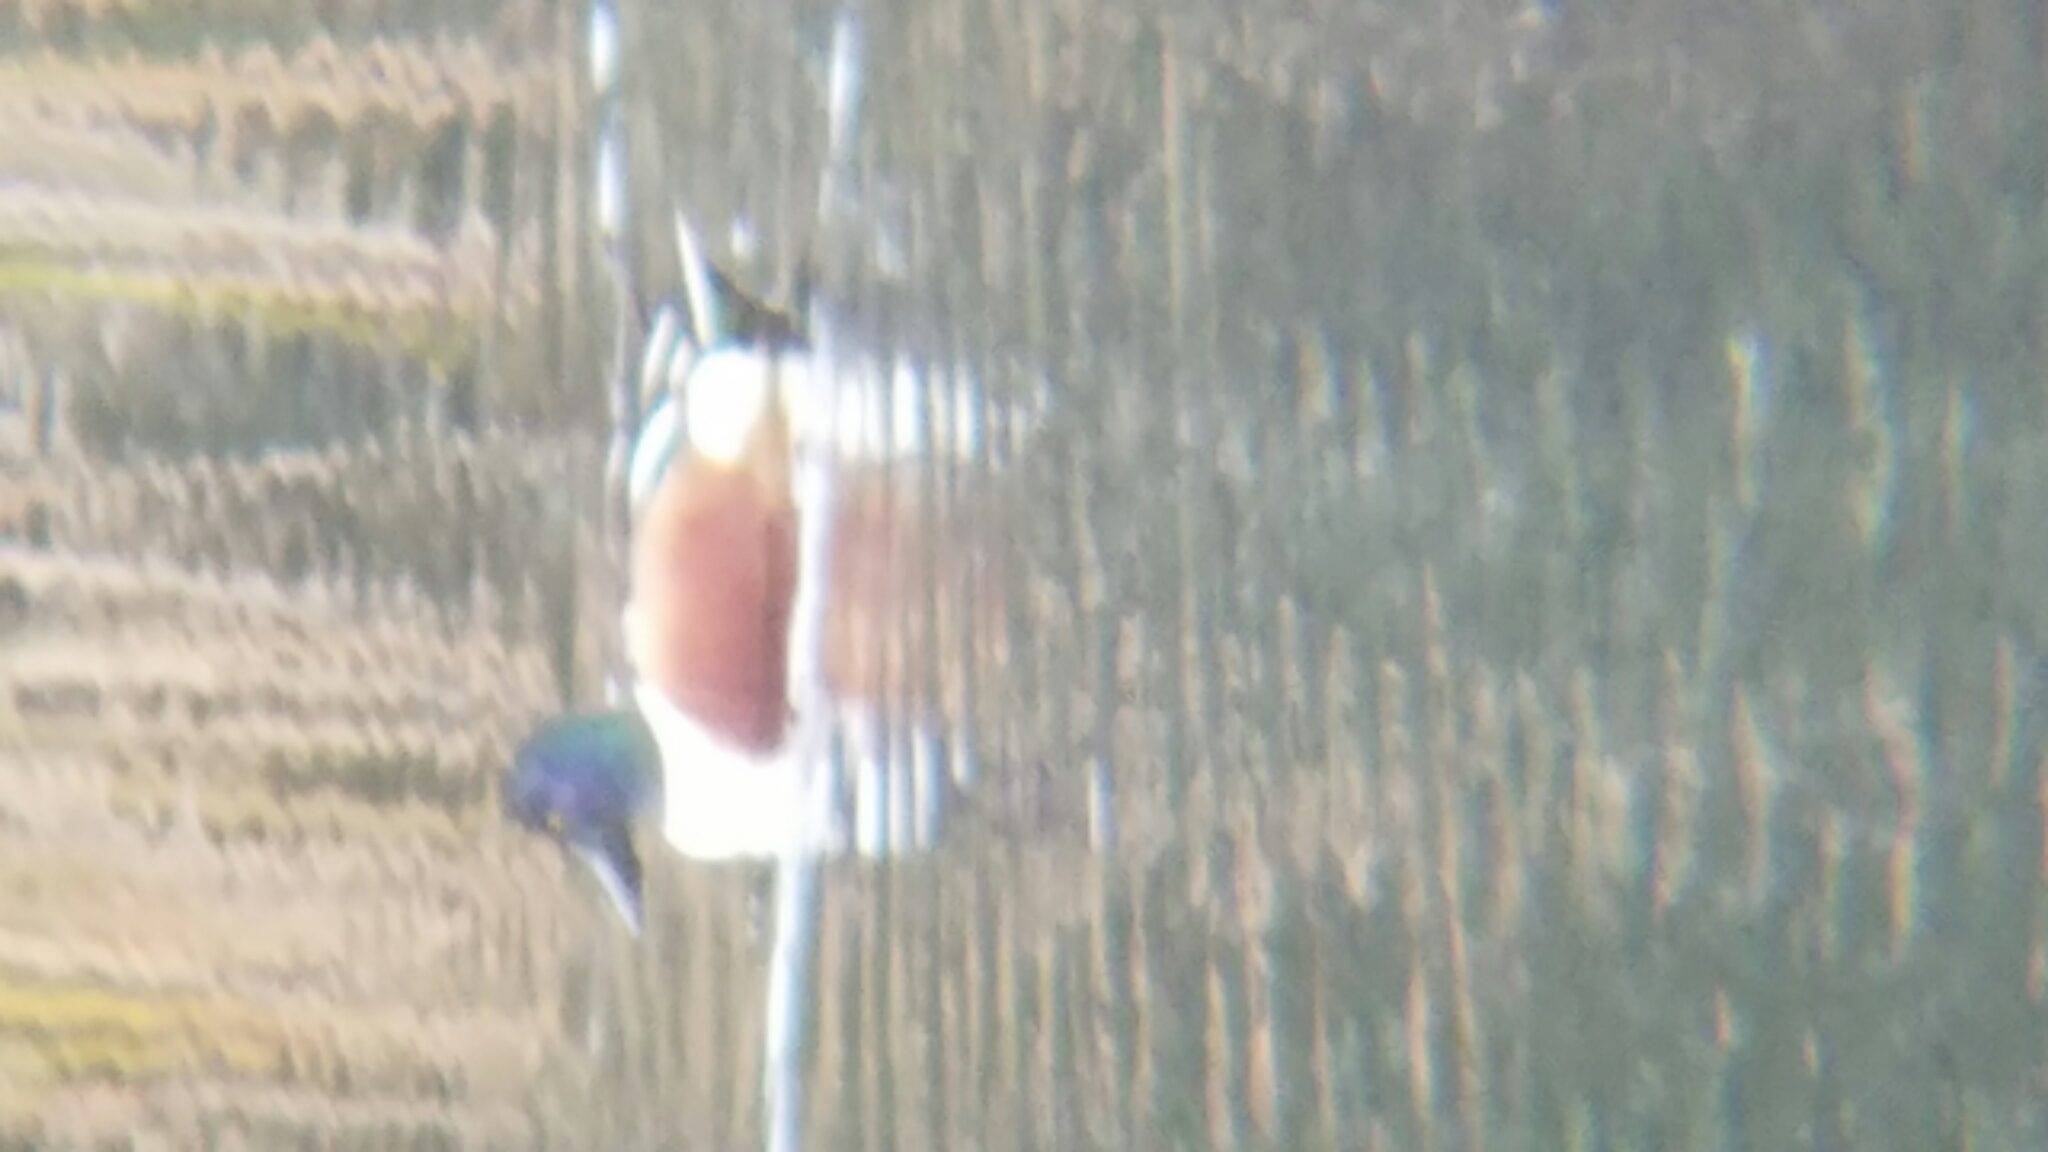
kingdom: Animalia
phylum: Chordata
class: Aves
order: Anseriformes
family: Anatidae
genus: Spatula
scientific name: Spatula clypeata
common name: Northern shoveler
